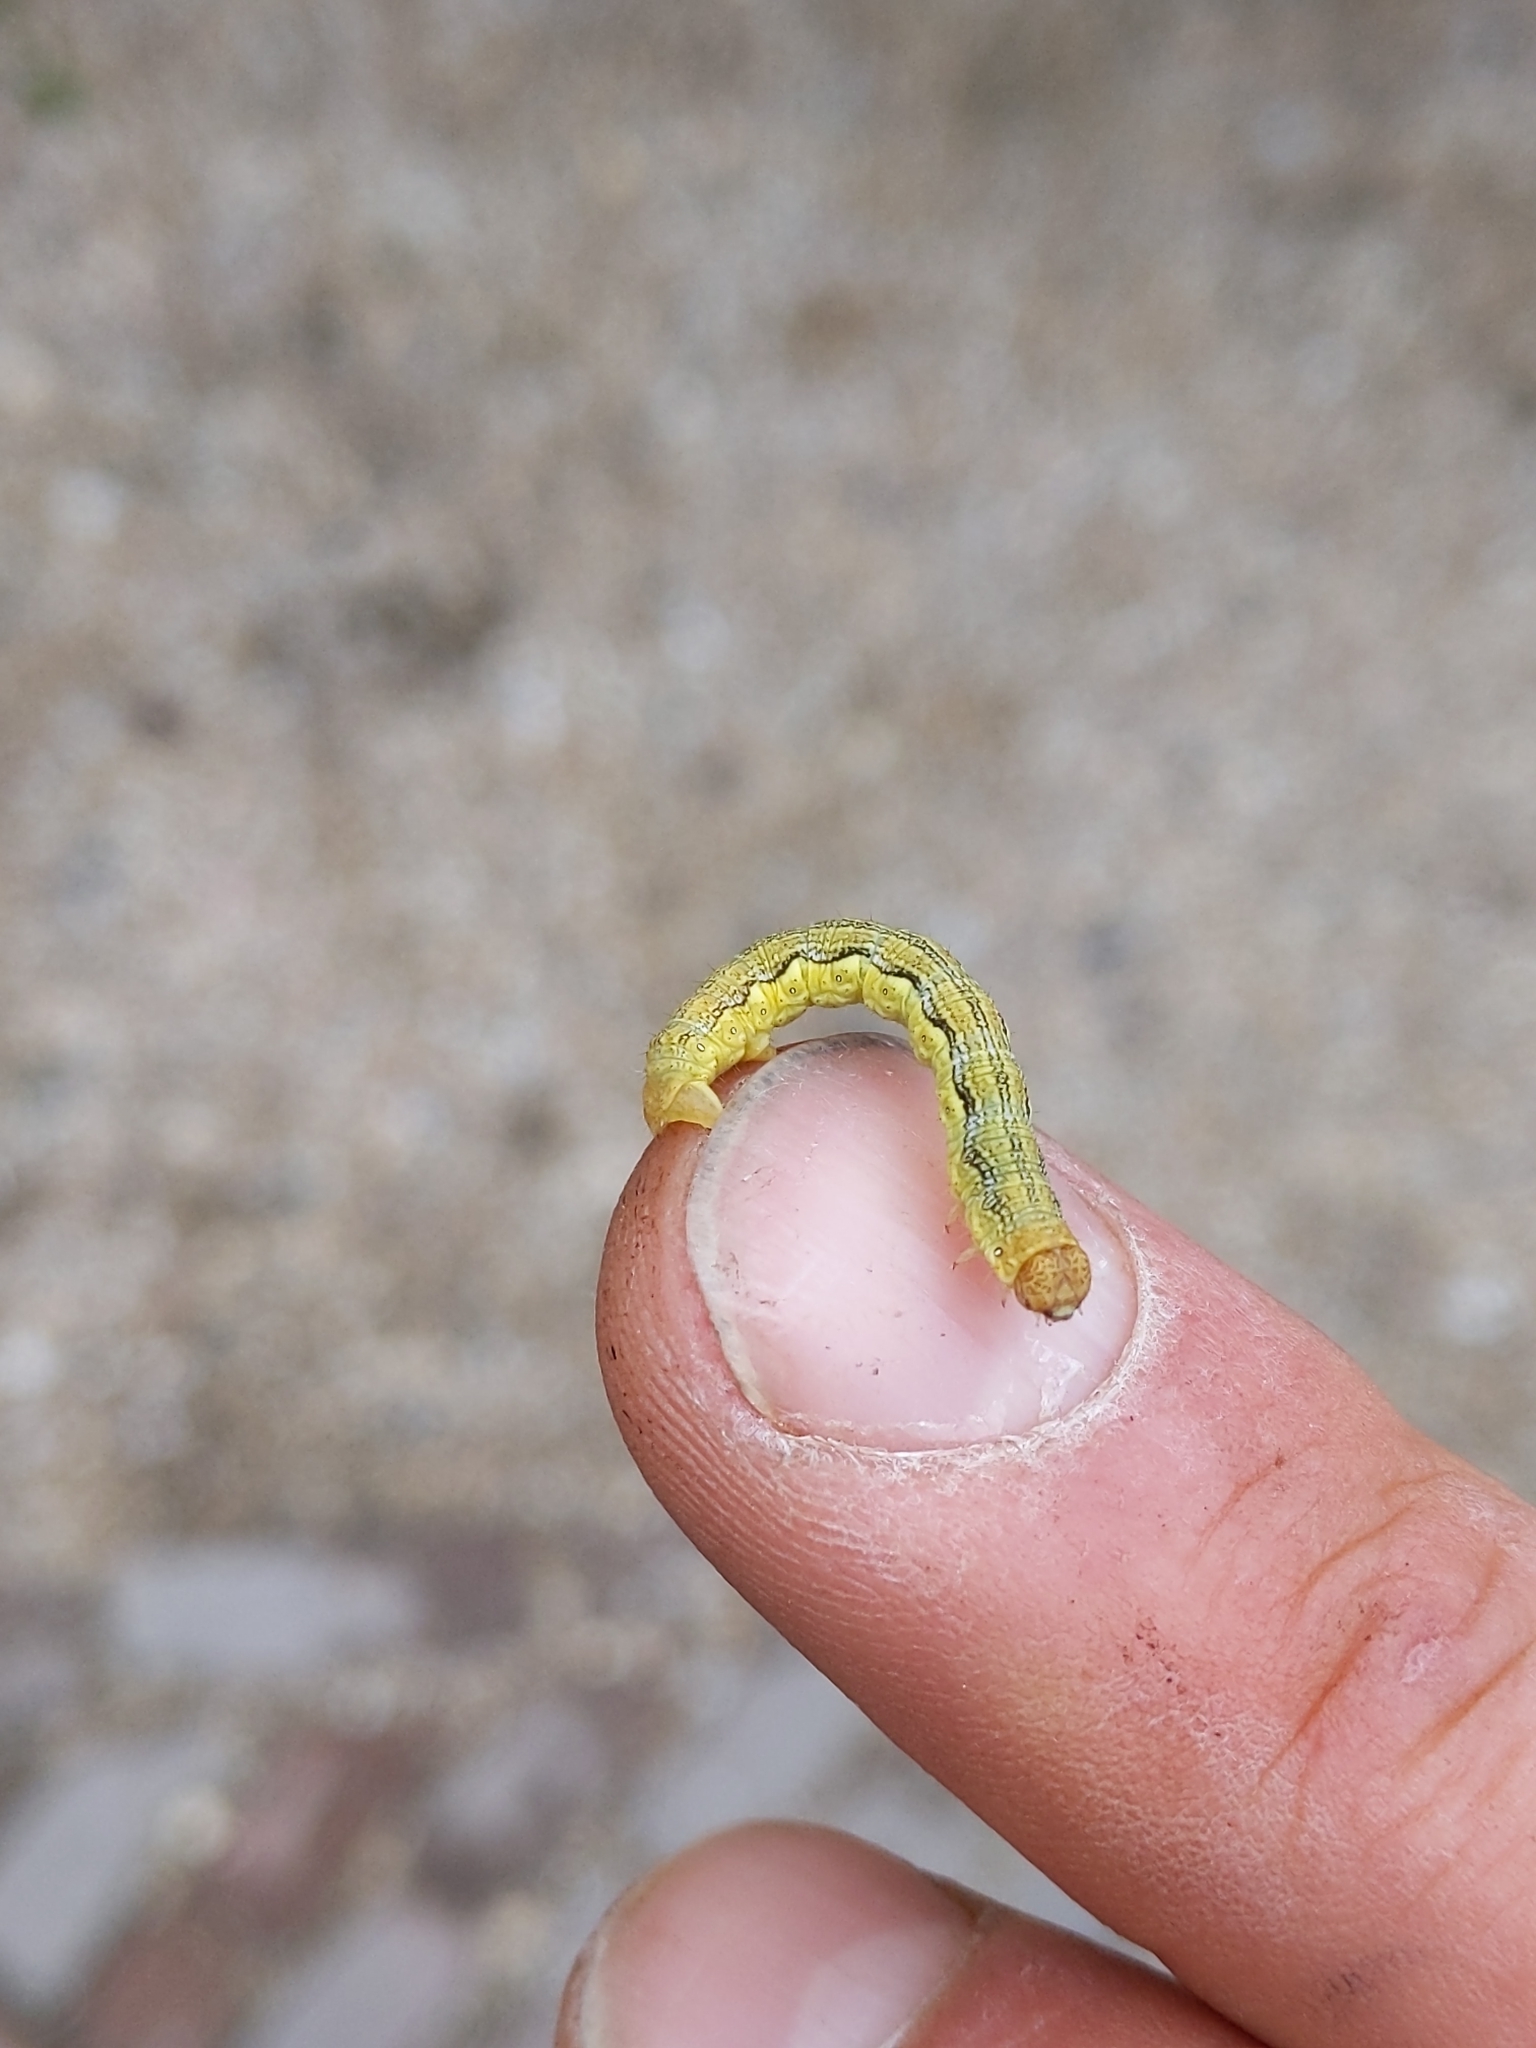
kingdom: Animalia
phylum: Arthropoda
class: Insecta
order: Lepidoptera
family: Geometridae
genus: Erannis
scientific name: Erannis defoliaria
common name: Mottled umber
